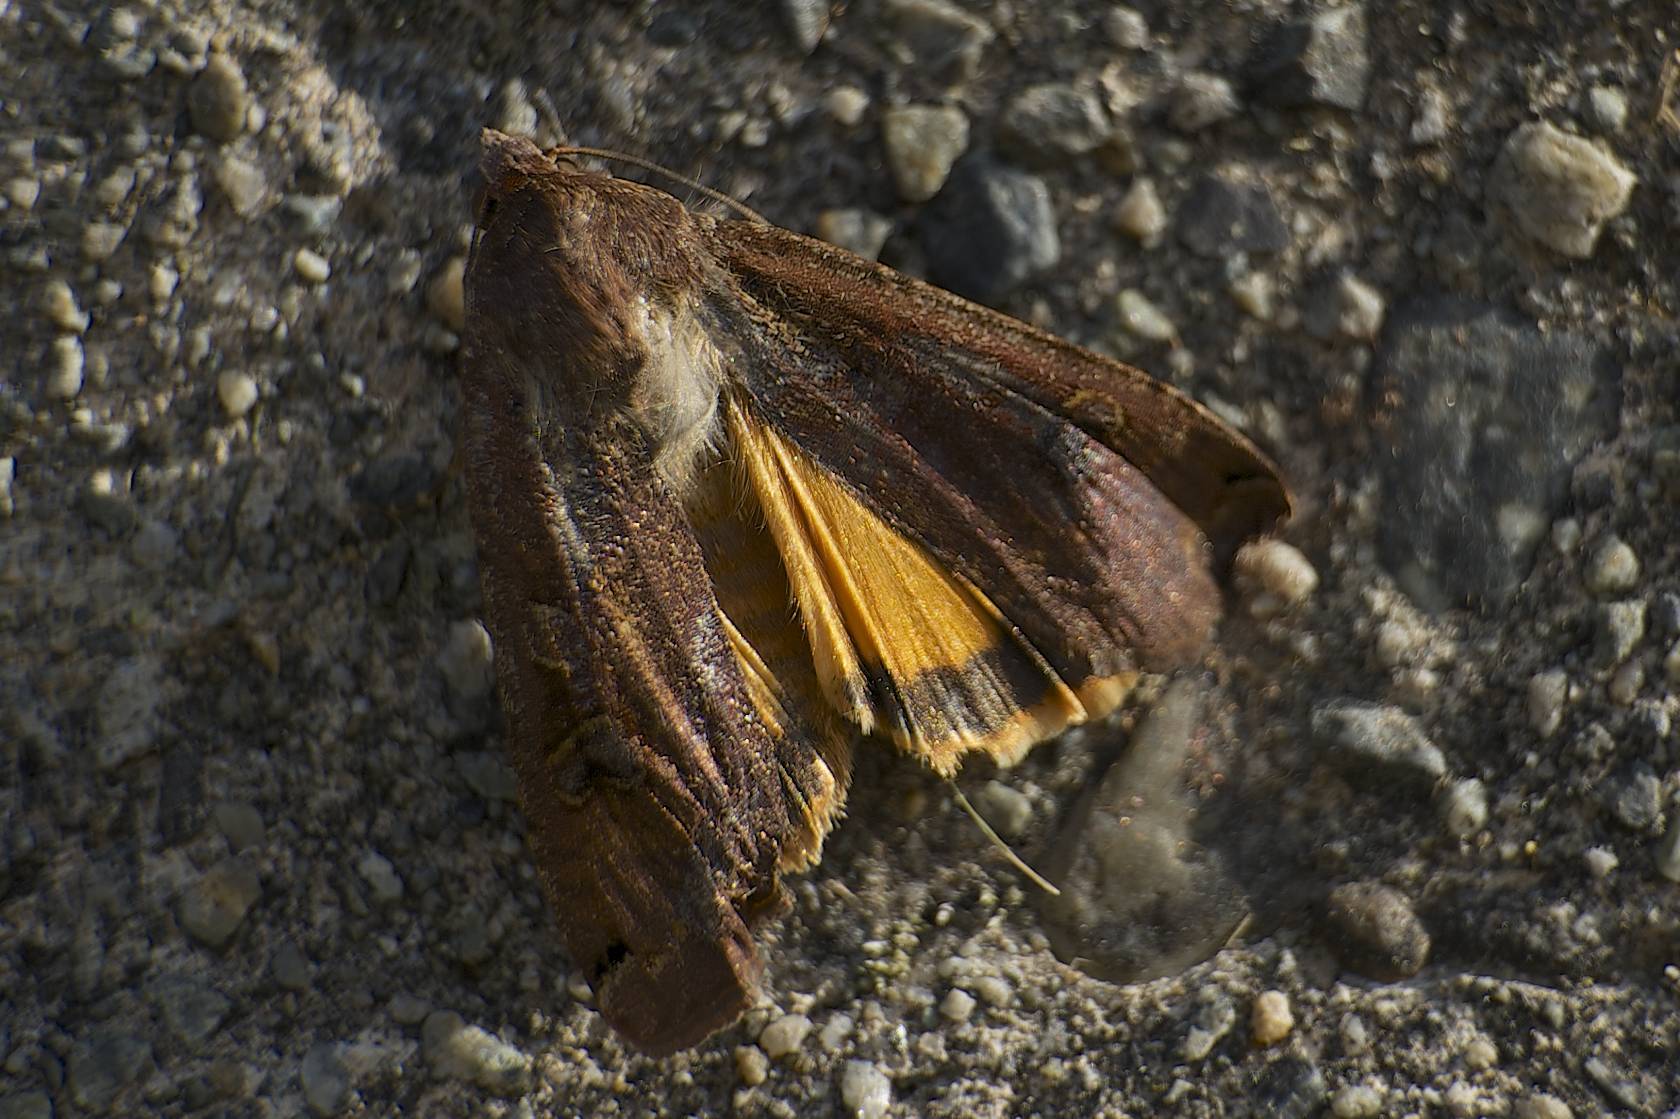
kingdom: Animalia
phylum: Arthropoda
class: Insecta
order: Lepidoptera
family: Noctuidae
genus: Noctua
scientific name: Noctua pronuba
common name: Large yellow underwing
